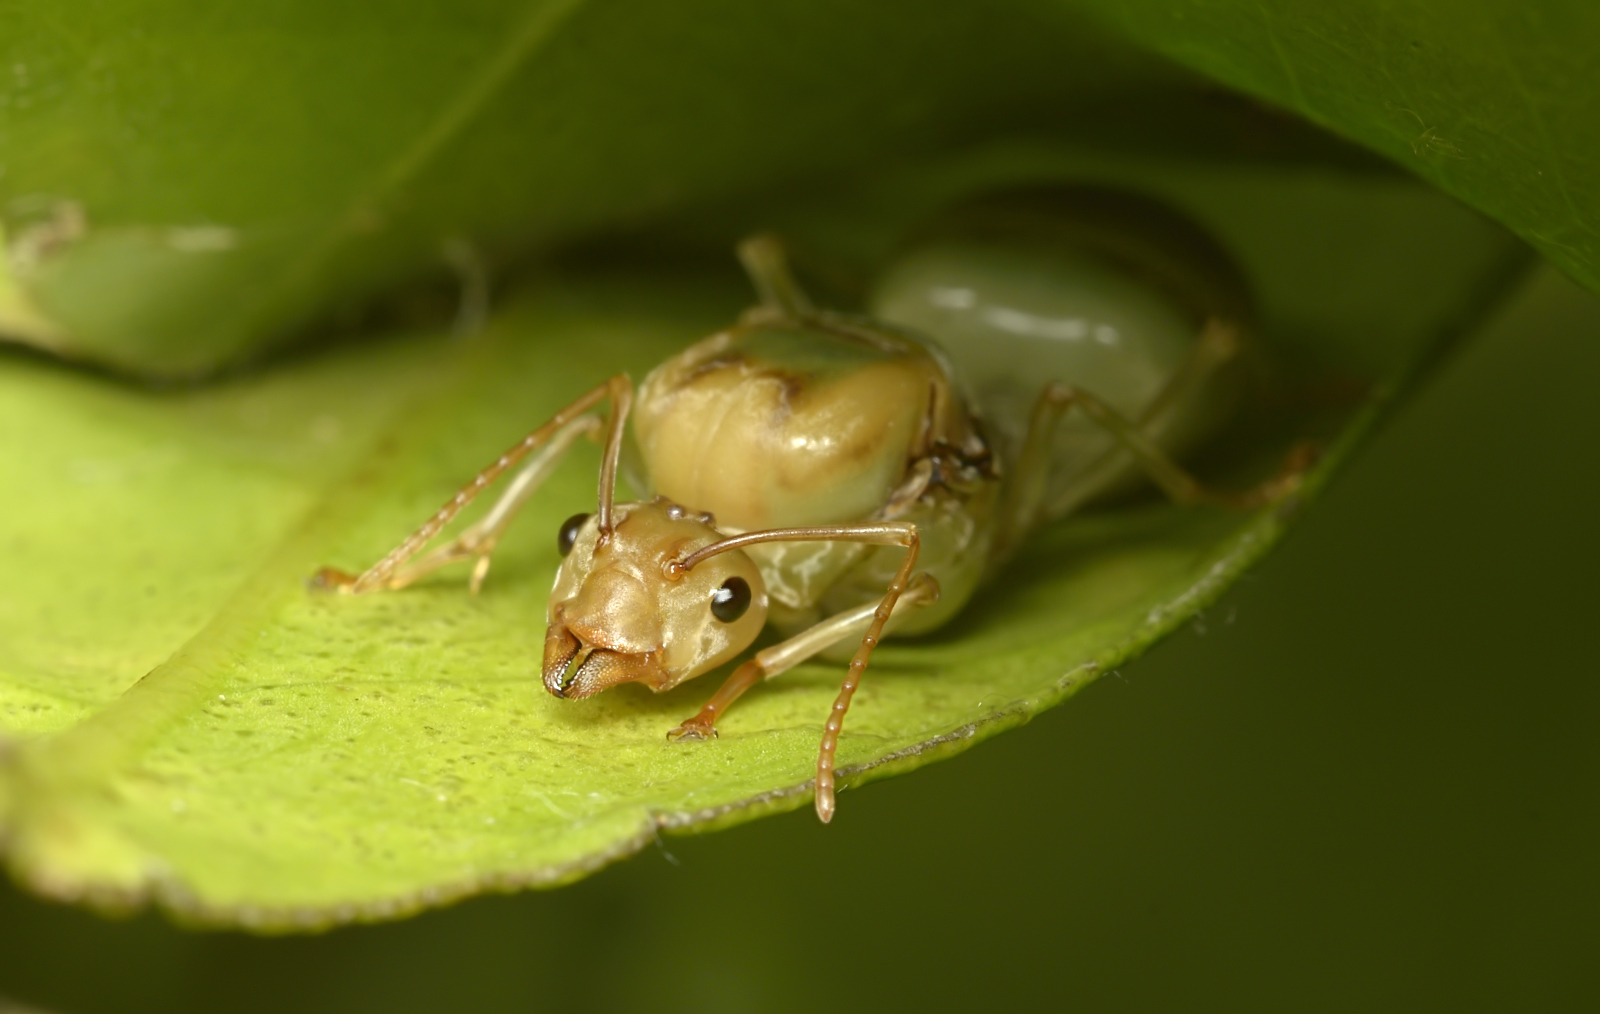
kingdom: Animalia
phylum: Arthropoda
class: Insecta
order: Hymenoptera
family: Formicidae
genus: Oecophylla
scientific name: Oecophylla smaragdina
